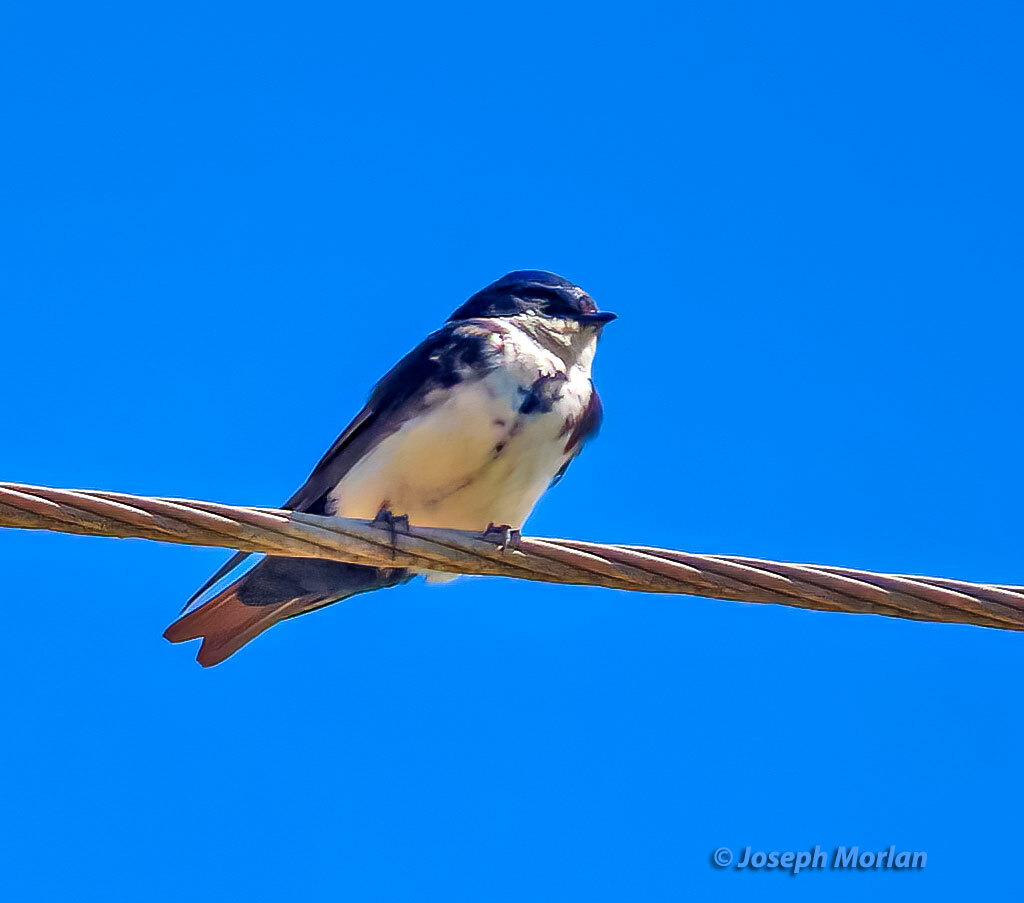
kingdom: Animalia
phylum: Chordata
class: Aves
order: Passeriformes
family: Hirundinidae
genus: Notiochelidon
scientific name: Notiochelidon cyanoleuca
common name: Blue-and-white swallow
